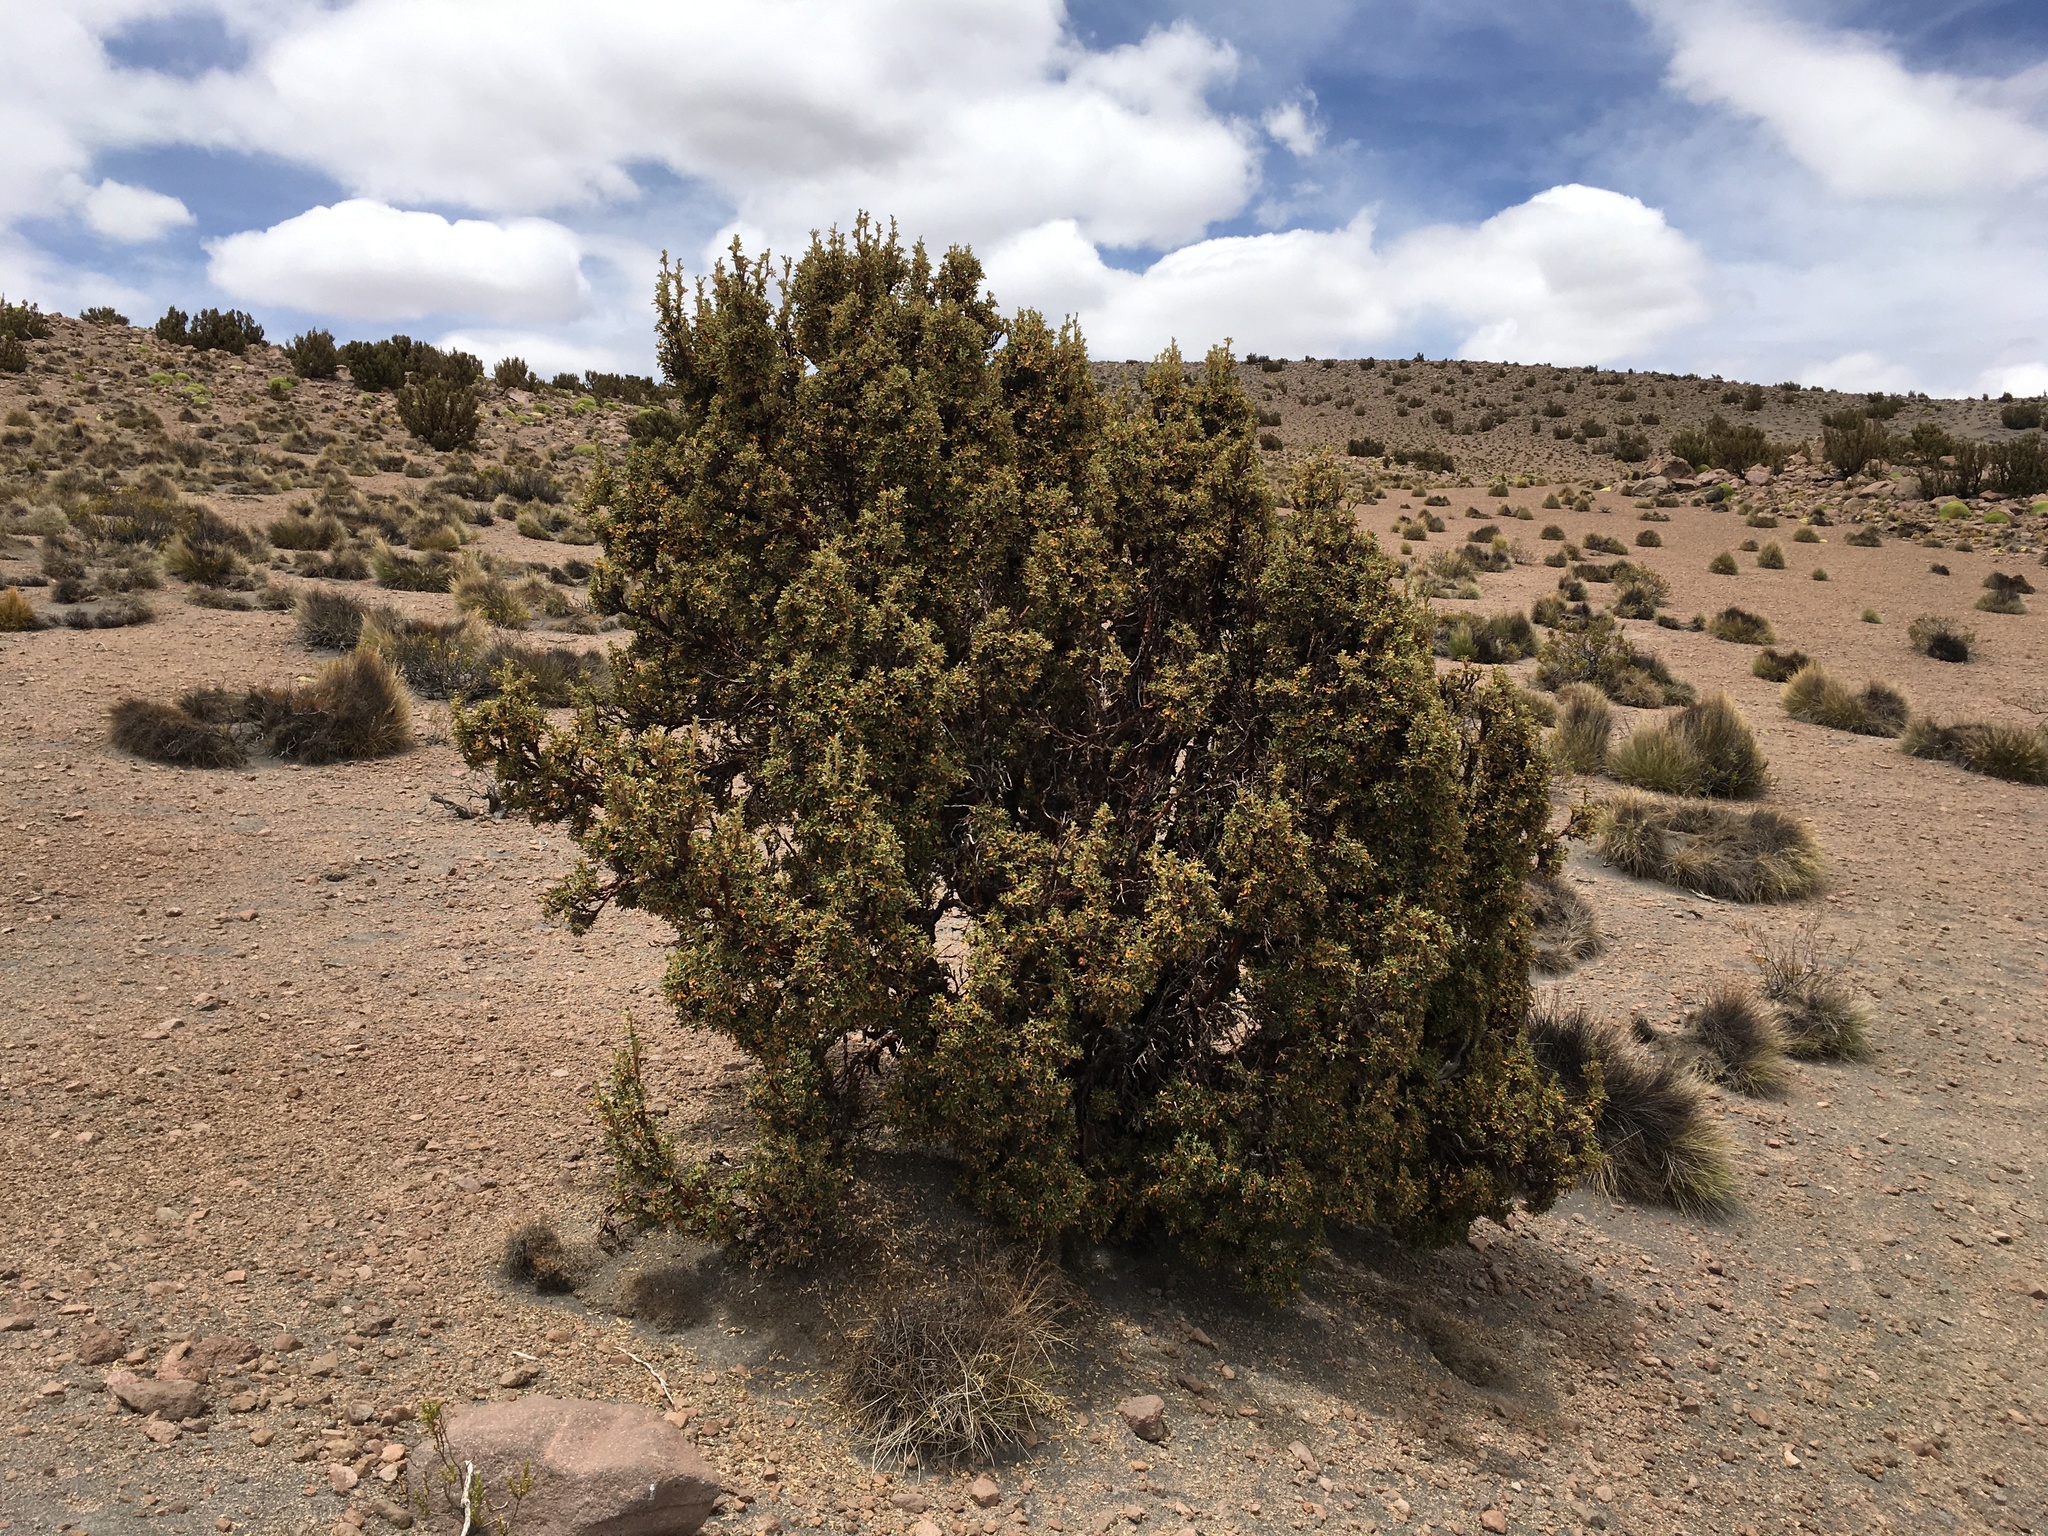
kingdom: Plantae
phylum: Tracheophyta
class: Magnoliopsida
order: Rosales
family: Rosaceae
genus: Polylepis
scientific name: Polylepis tarapacana
